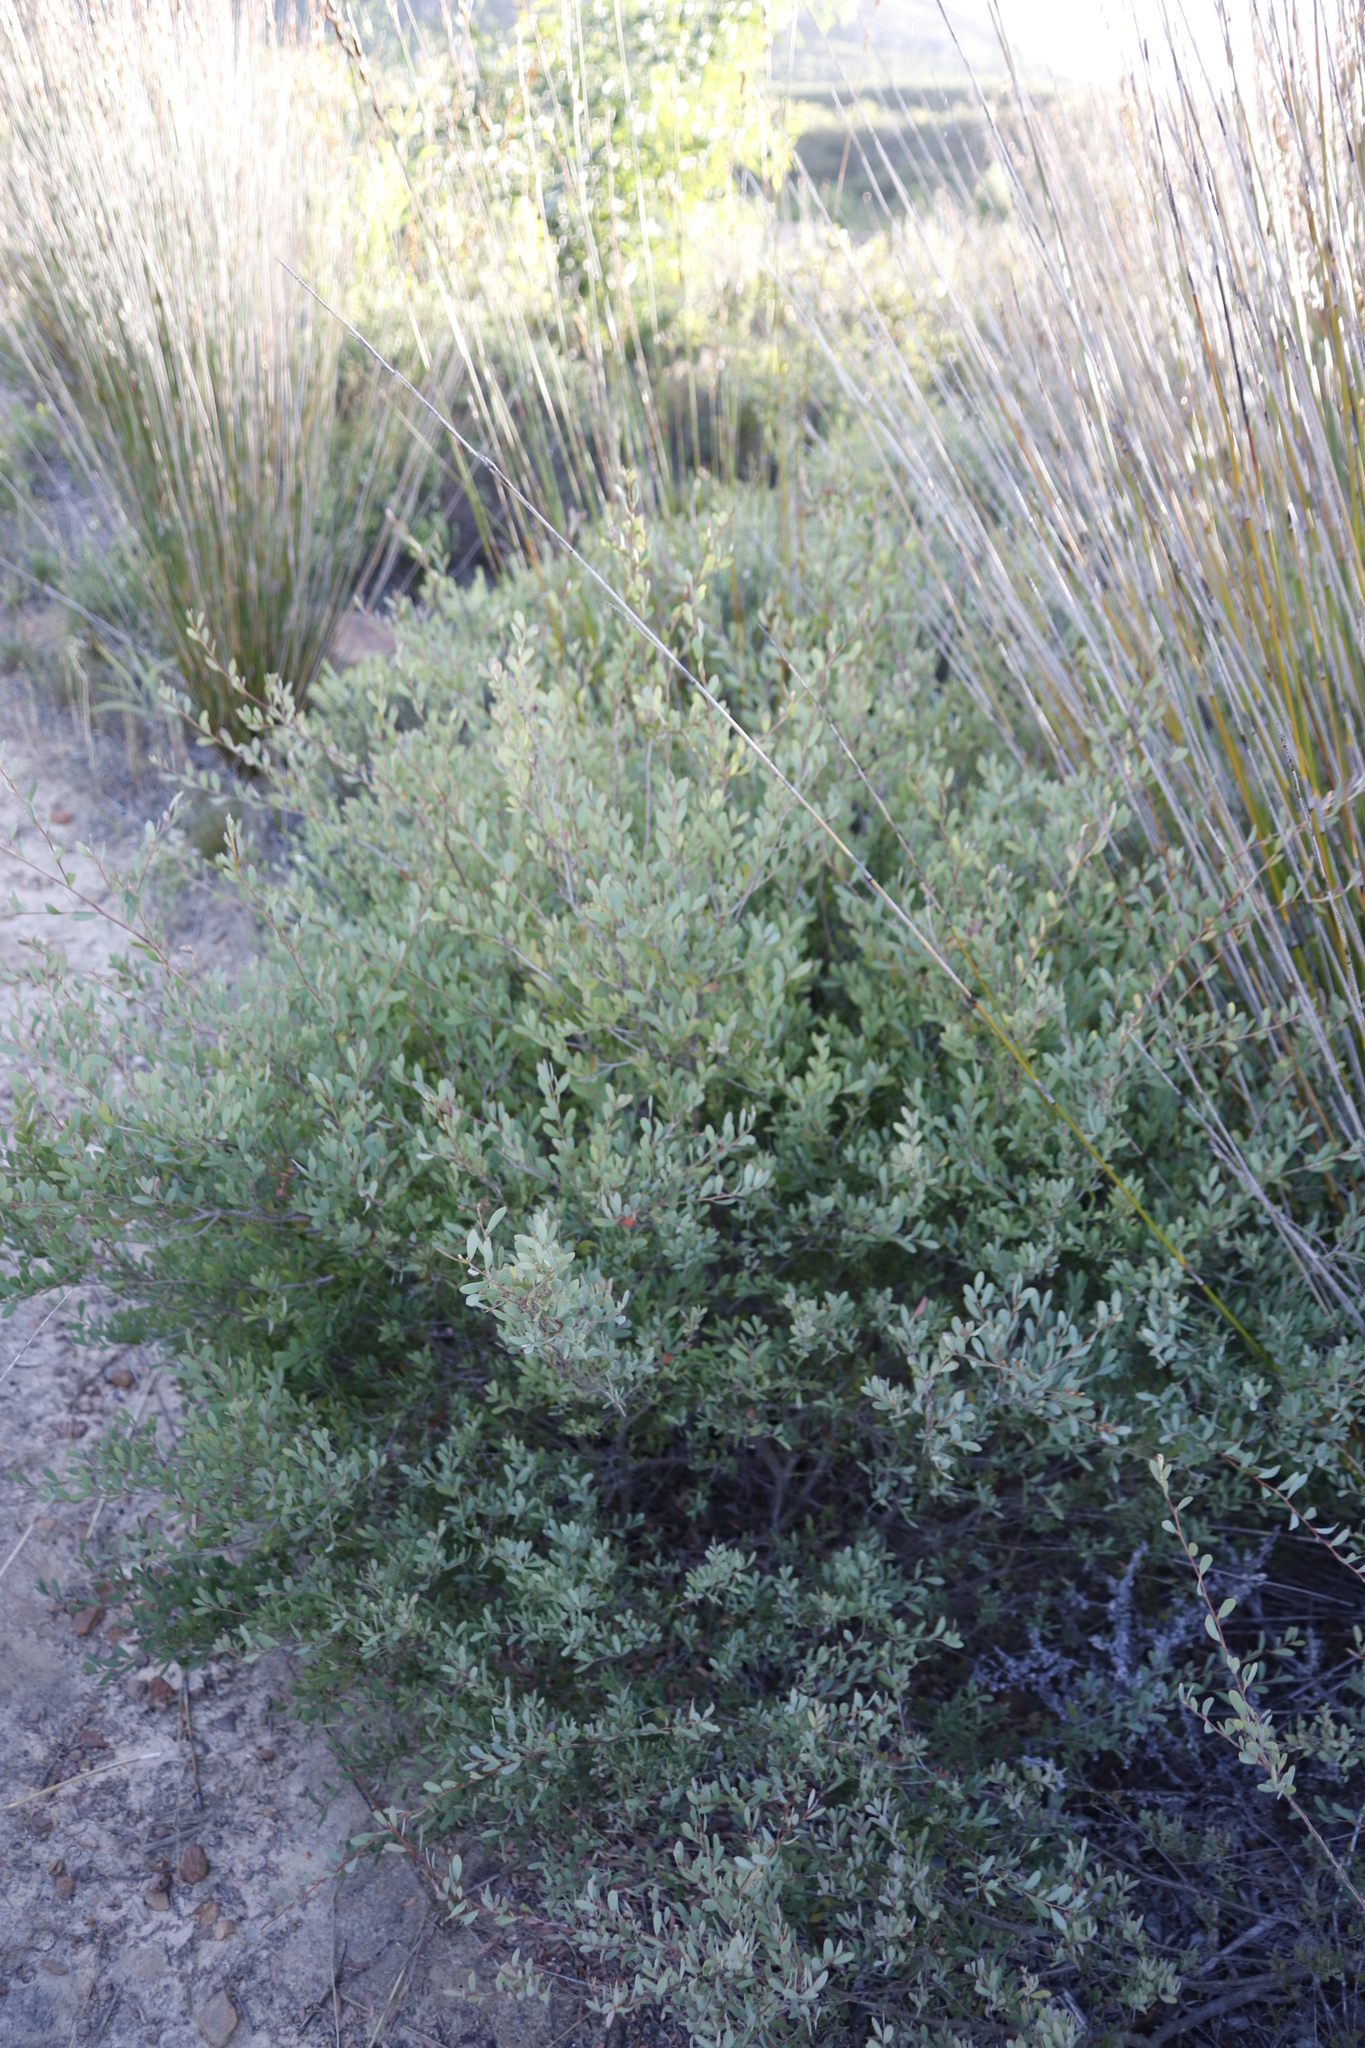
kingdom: Plantae
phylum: Tracheophyta
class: Magnoliopsida
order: Myrtales
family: Myrtaceae
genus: Leptospermum
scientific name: Leptospermum laevigatum
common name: Australian teatree
